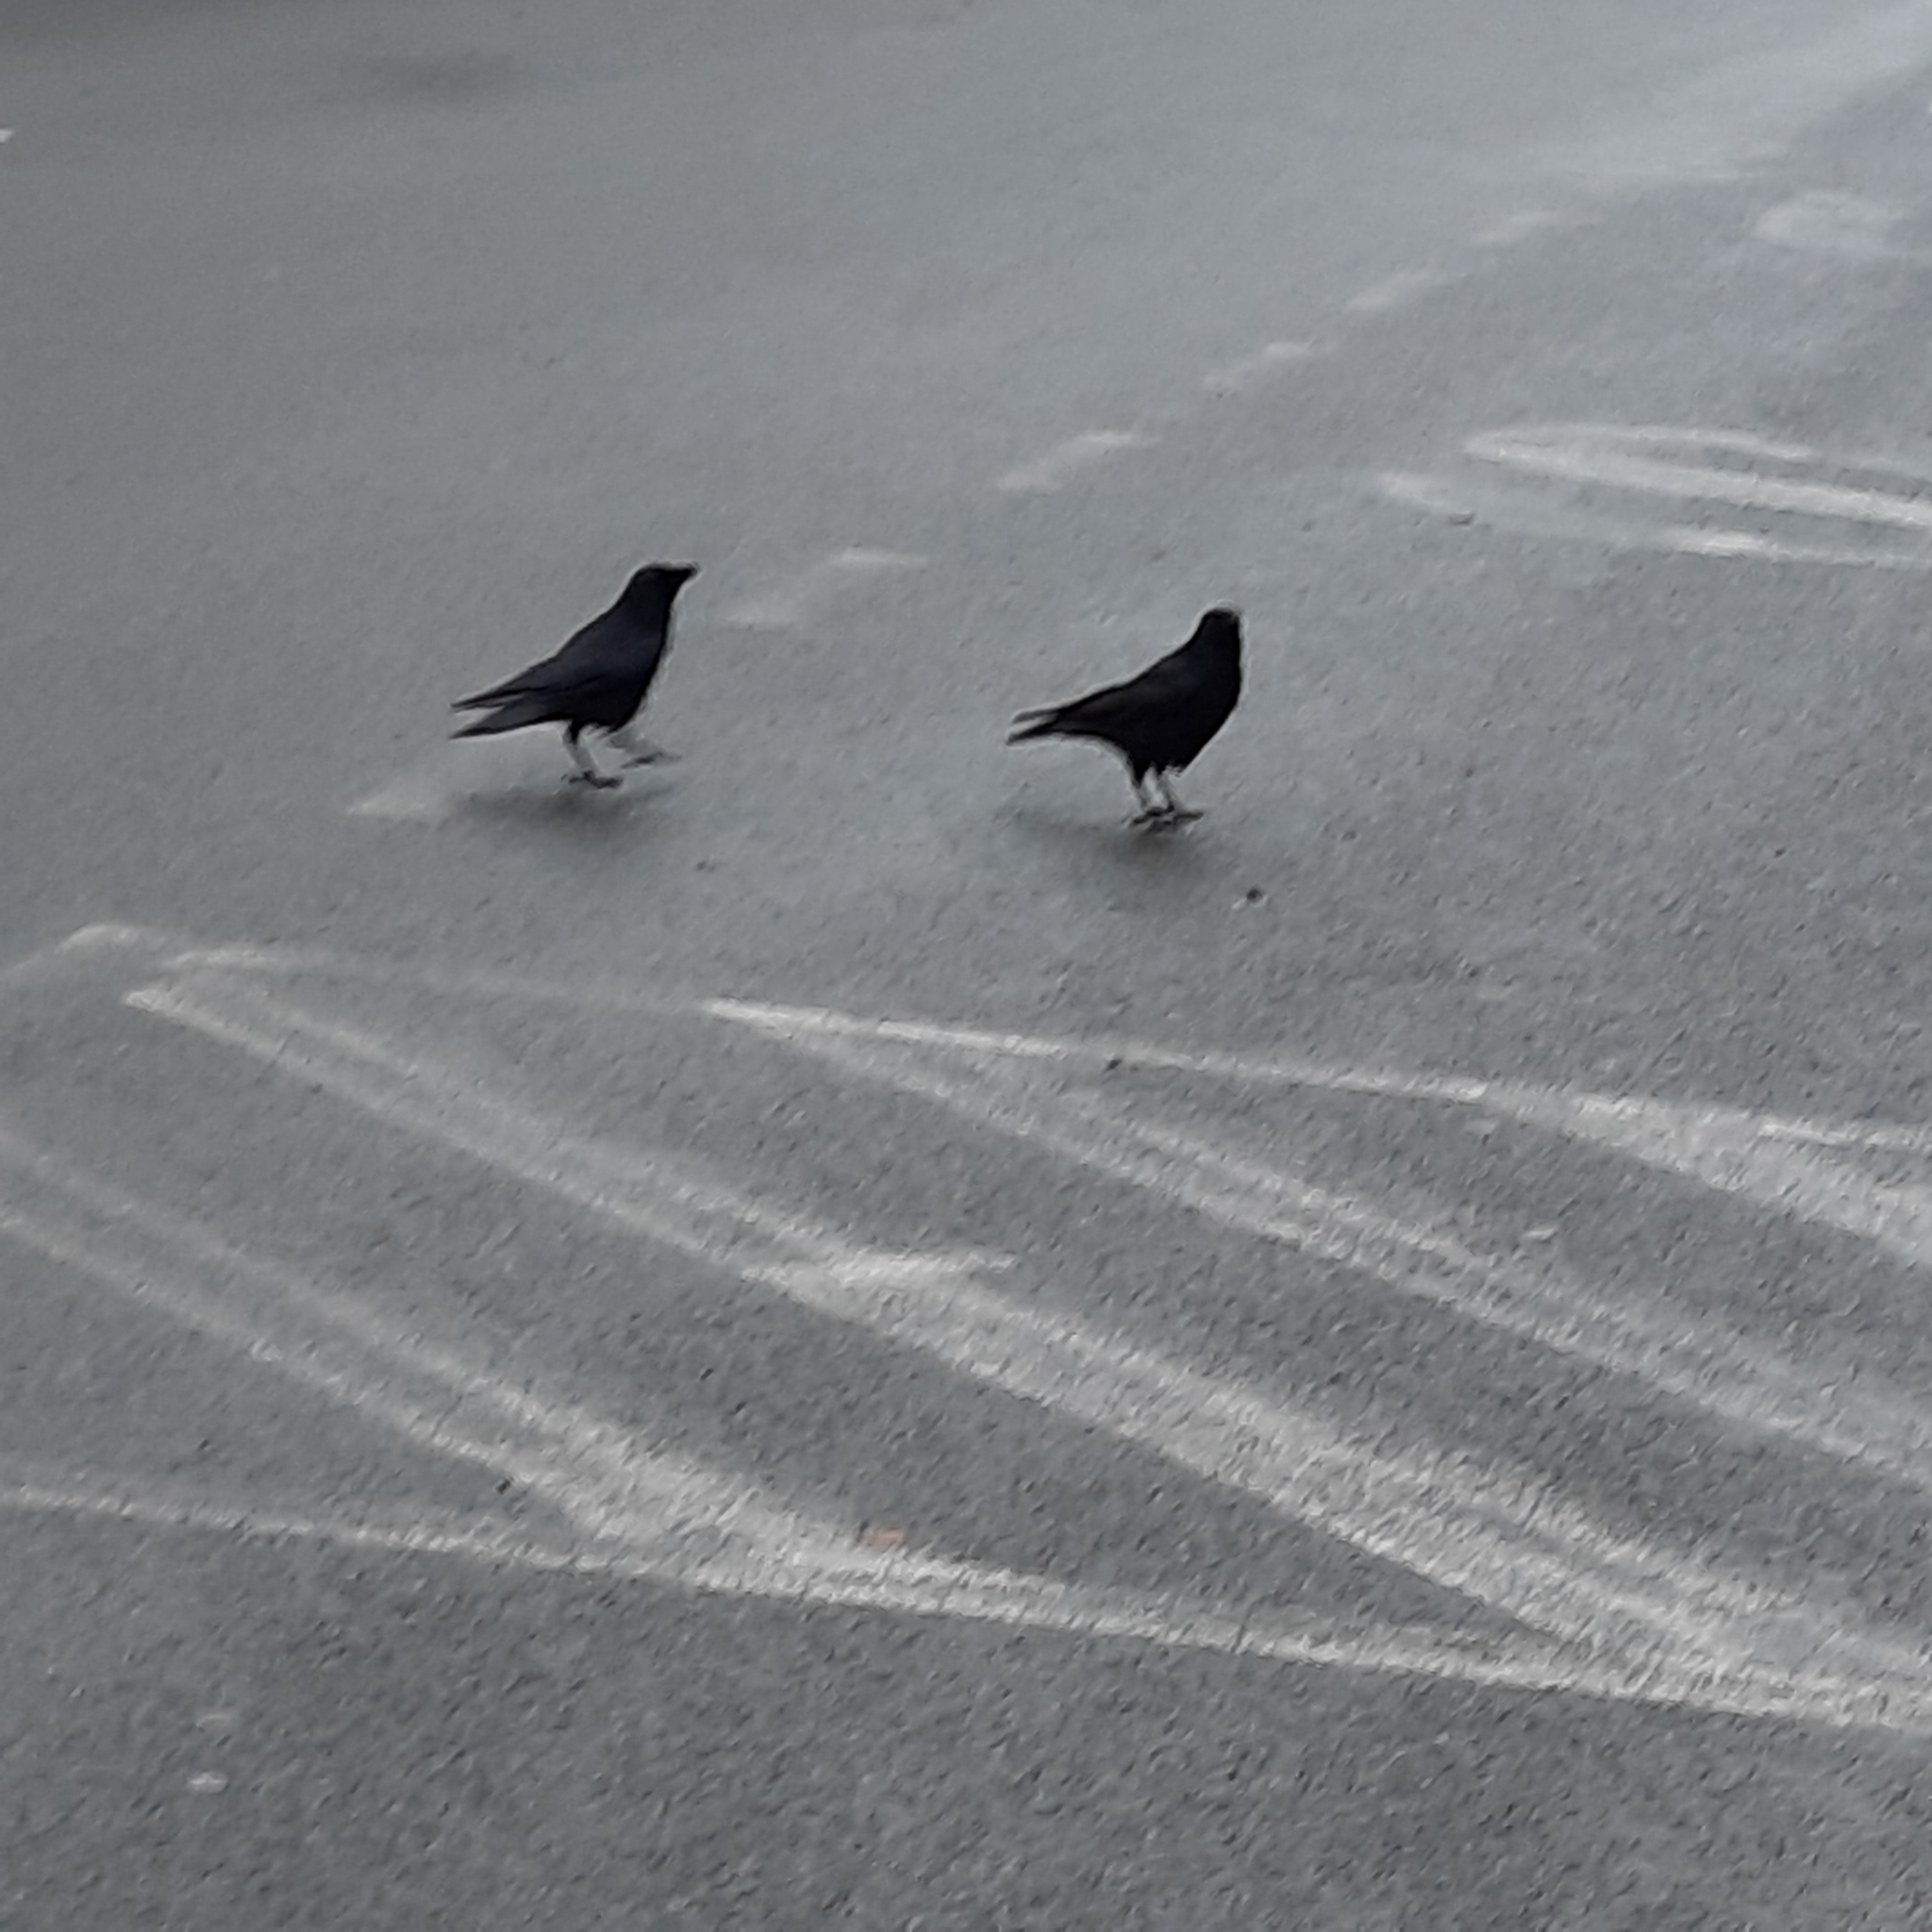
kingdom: Animalia
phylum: Chordata
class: Aves
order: Passeriformes
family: Corvidae
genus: Corvus
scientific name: Corvus corone
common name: Carrion crow
